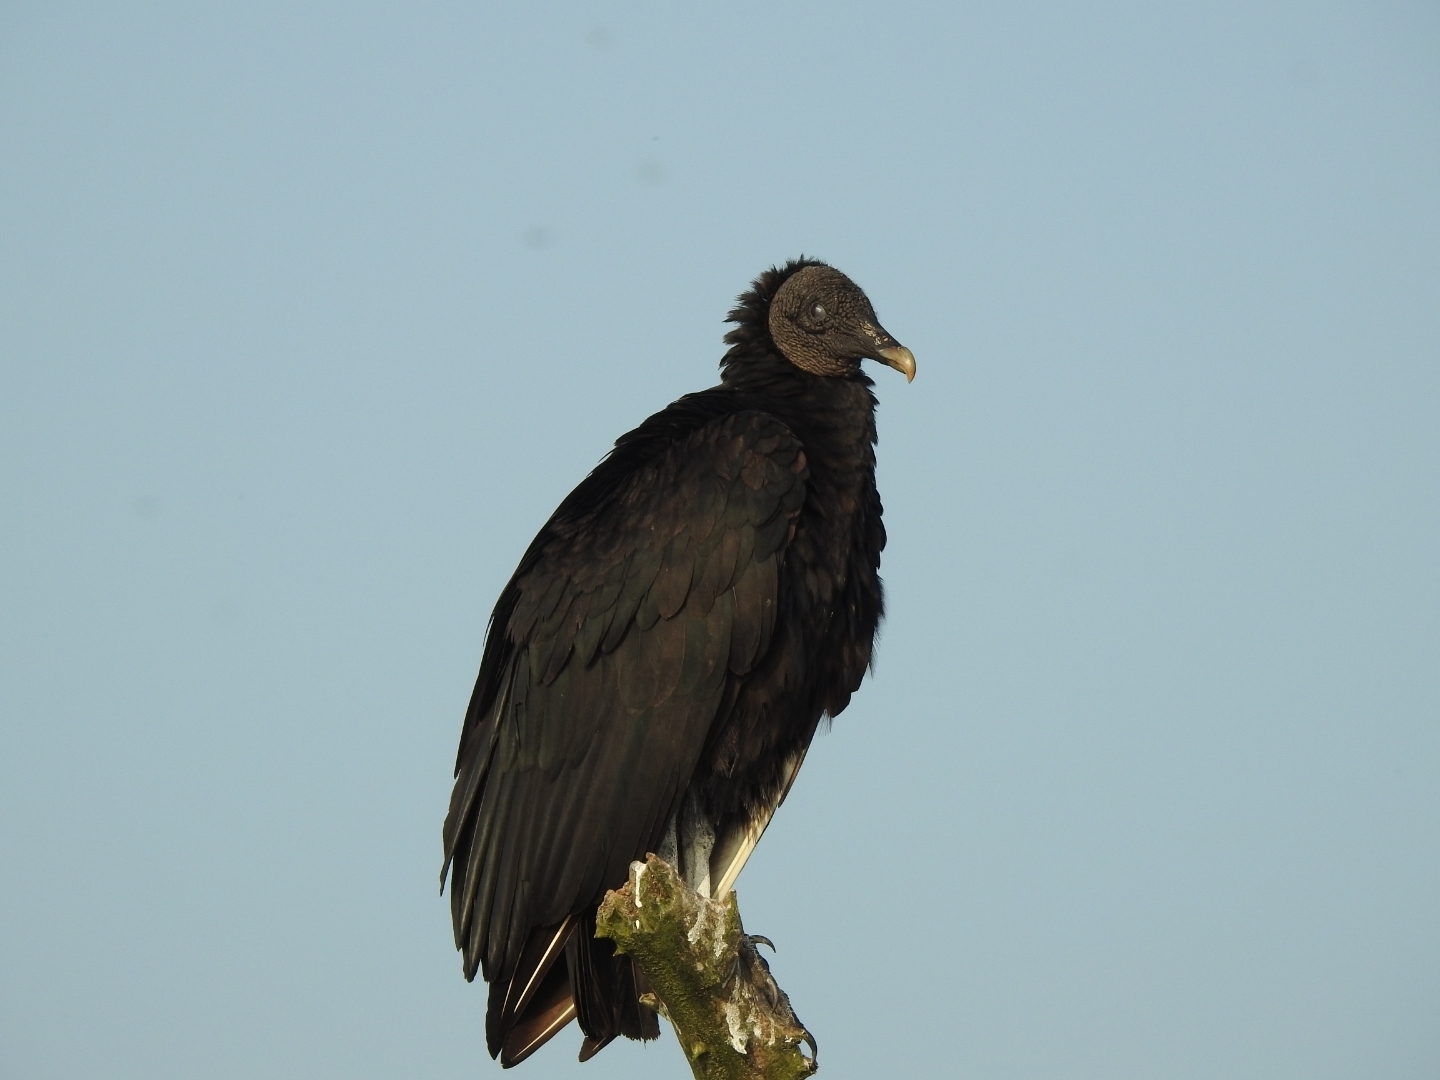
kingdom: Animalia
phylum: Chordata
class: Aves
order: Accipitriformes
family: Cathartidae
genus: Coragyps
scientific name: Coragyps atratus
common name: Black vulture
